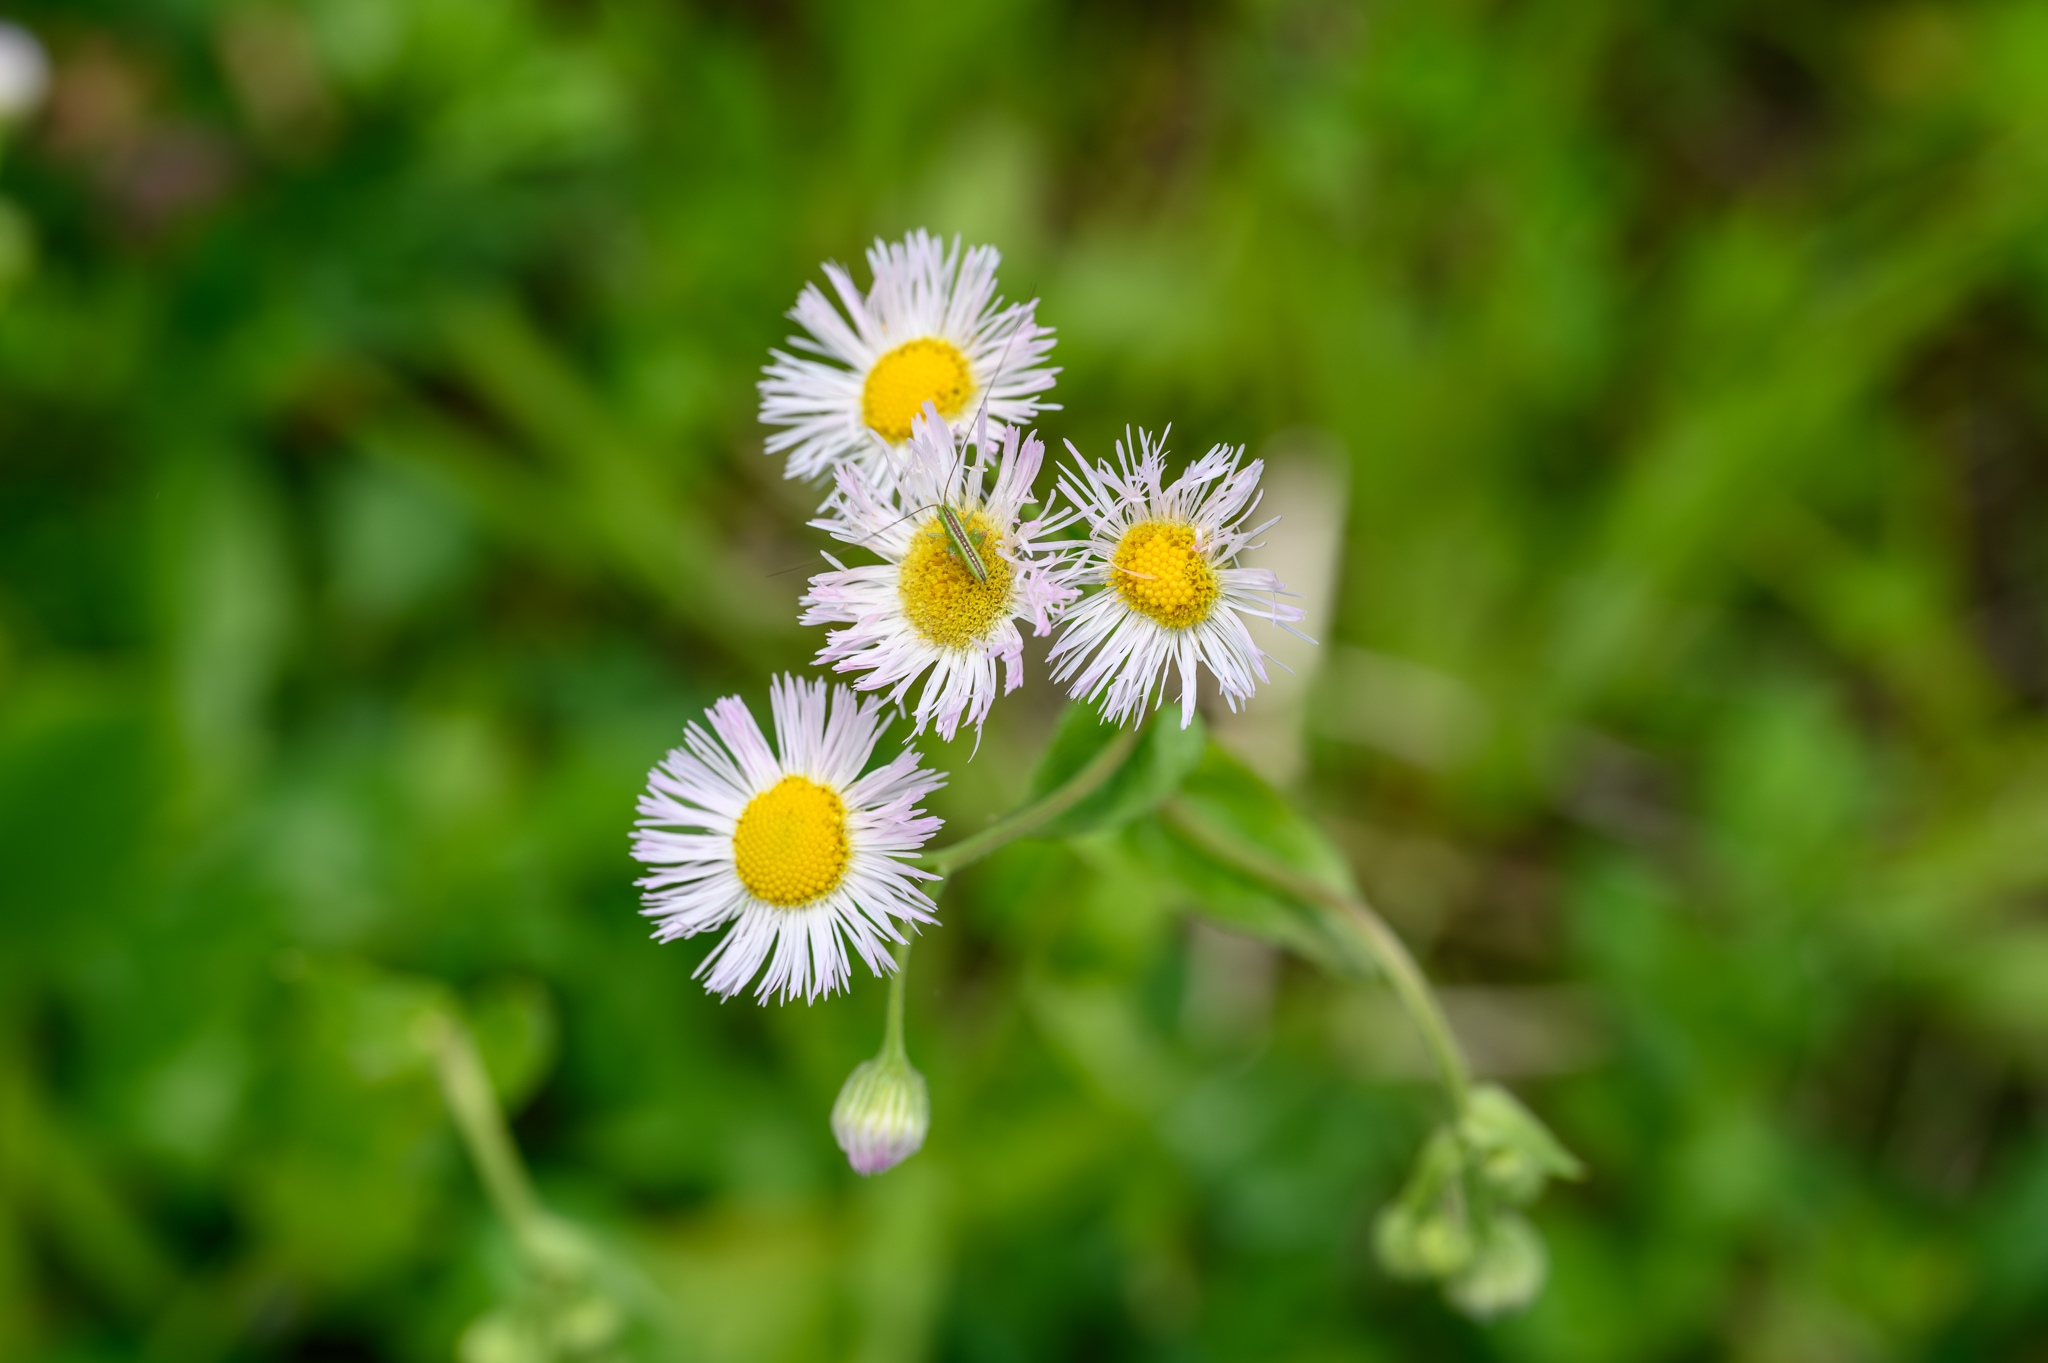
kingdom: Plantae
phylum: Tracheophyta
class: Magnoliopsida
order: Asterales
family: Asteraceae
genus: Erigeron
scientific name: Erigeron philadelphicus
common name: Robin's-plantain
